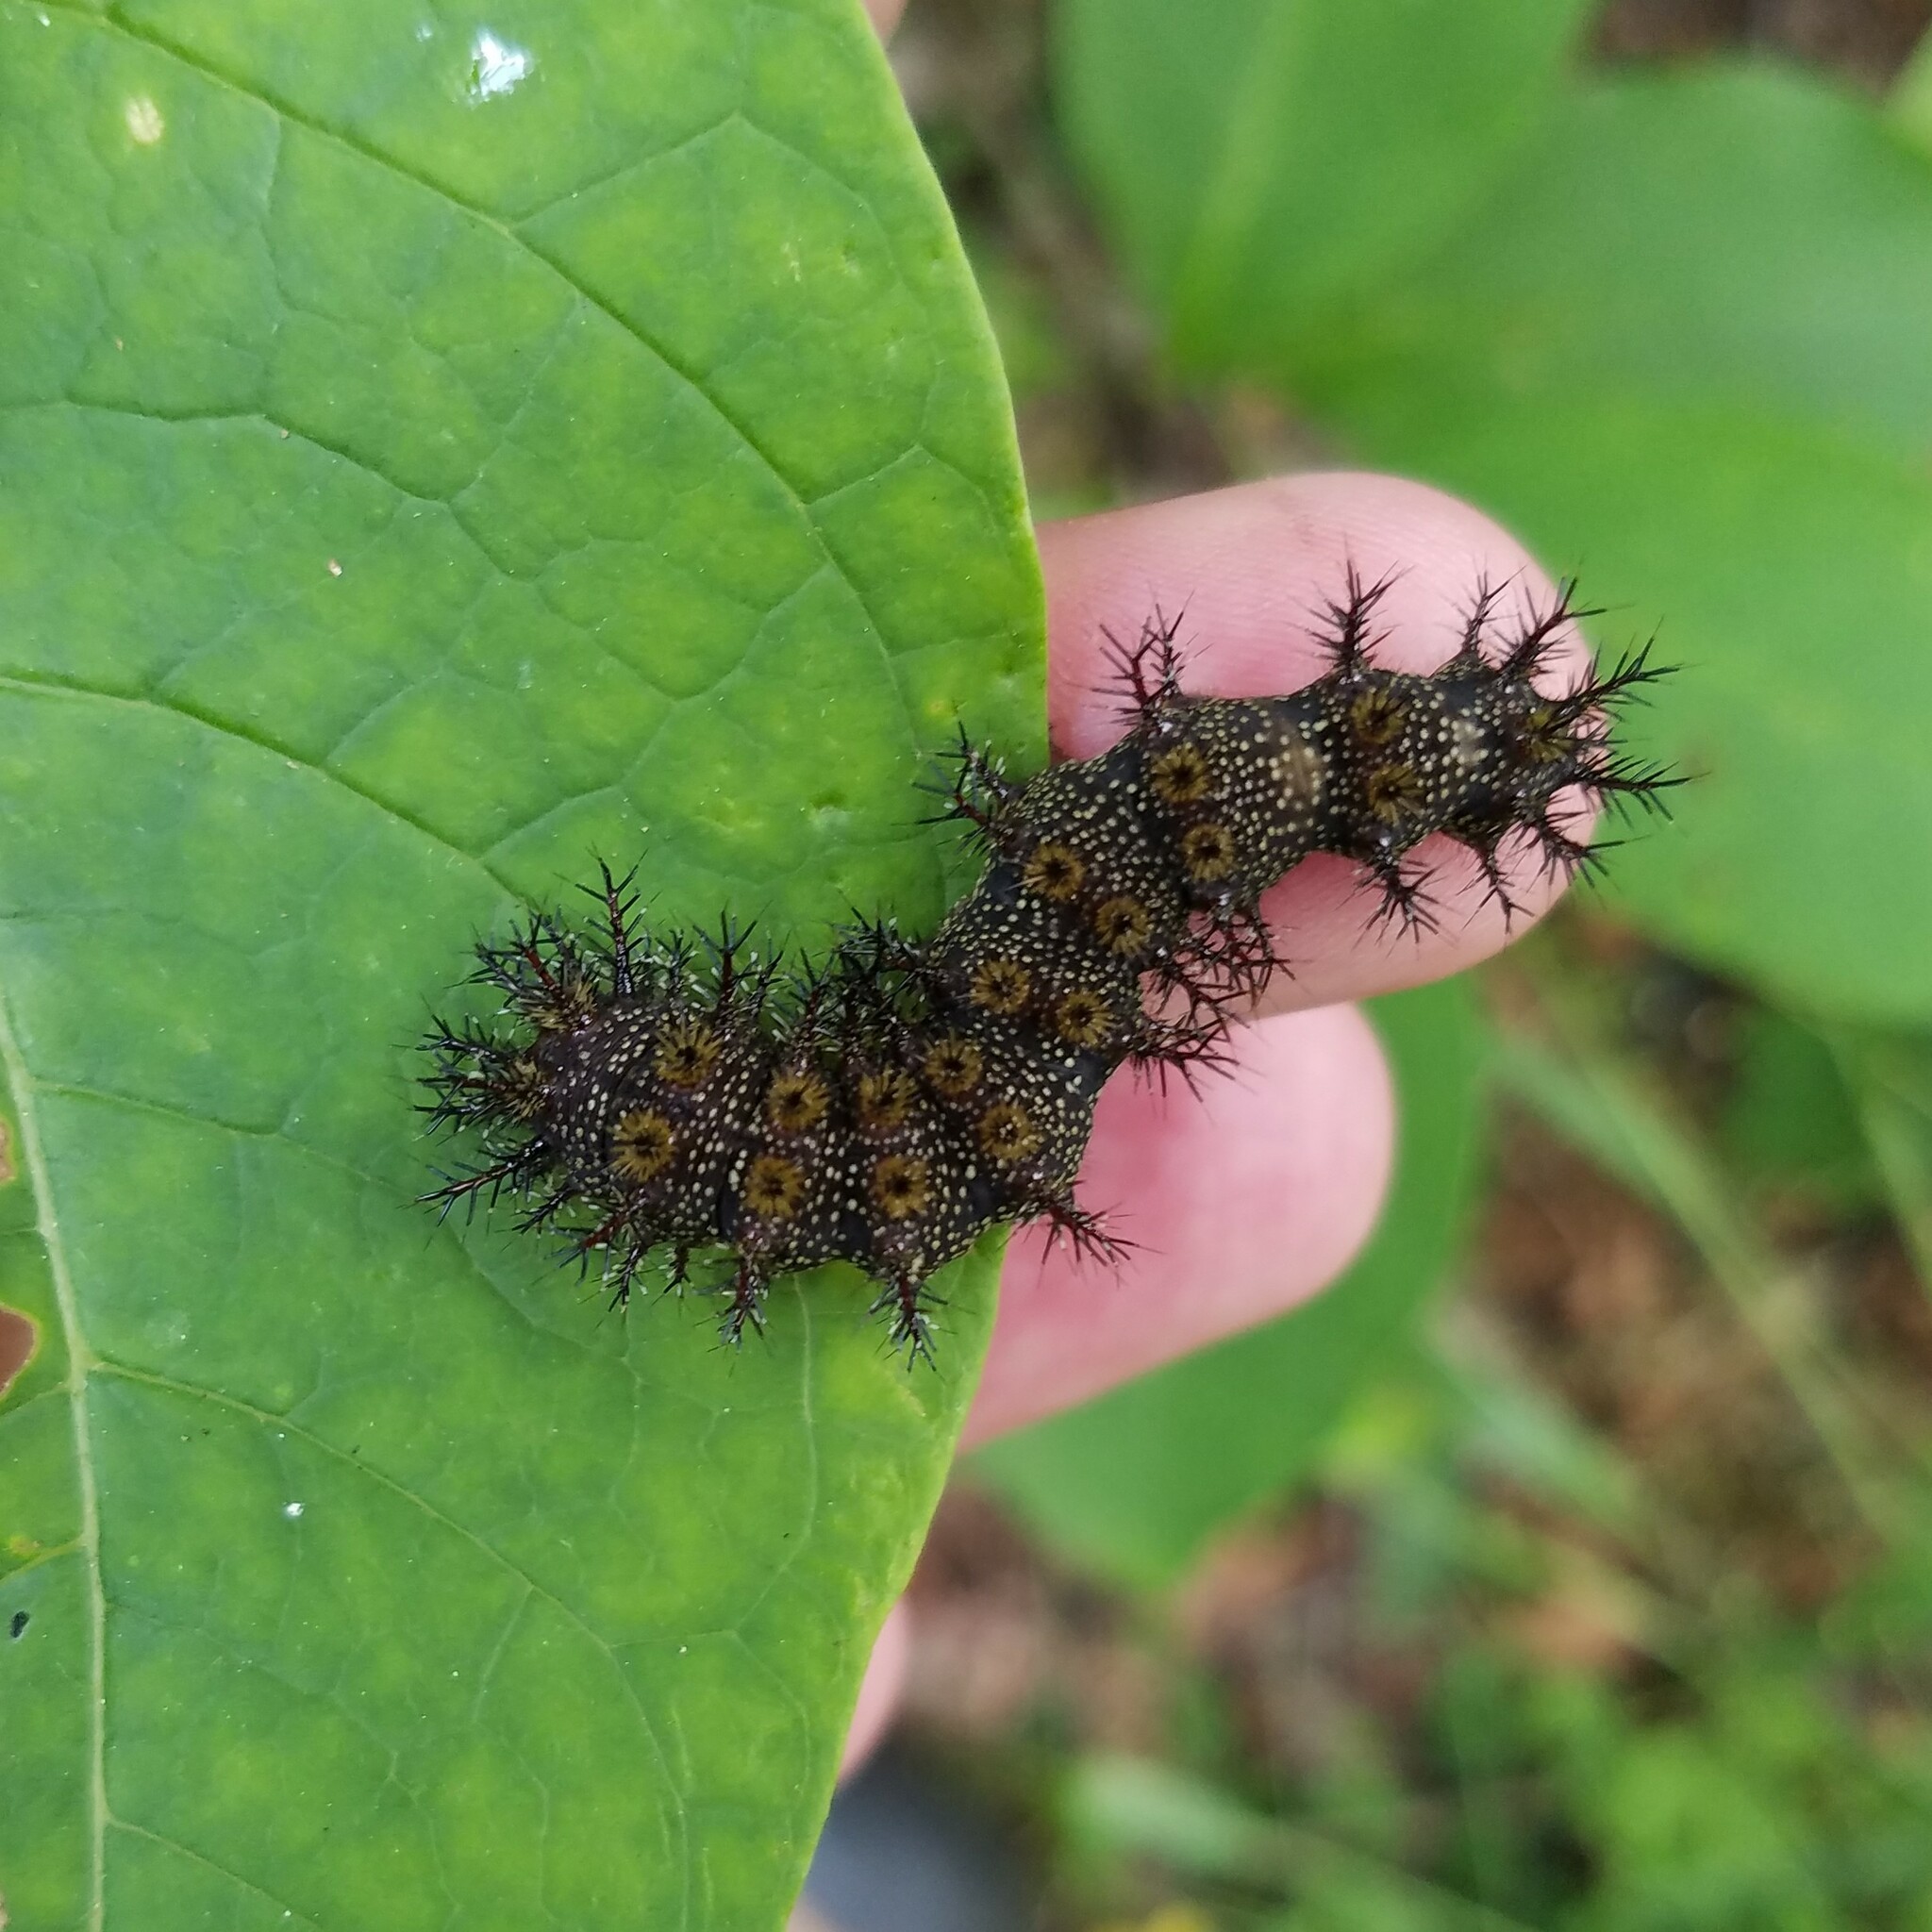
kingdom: Animalia
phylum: Arthropoda
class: Insecta
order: Lepidoptera
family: Saturniidae
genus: Hemileuca
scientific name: Hemileuca maia
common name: Eastern buckmoth
